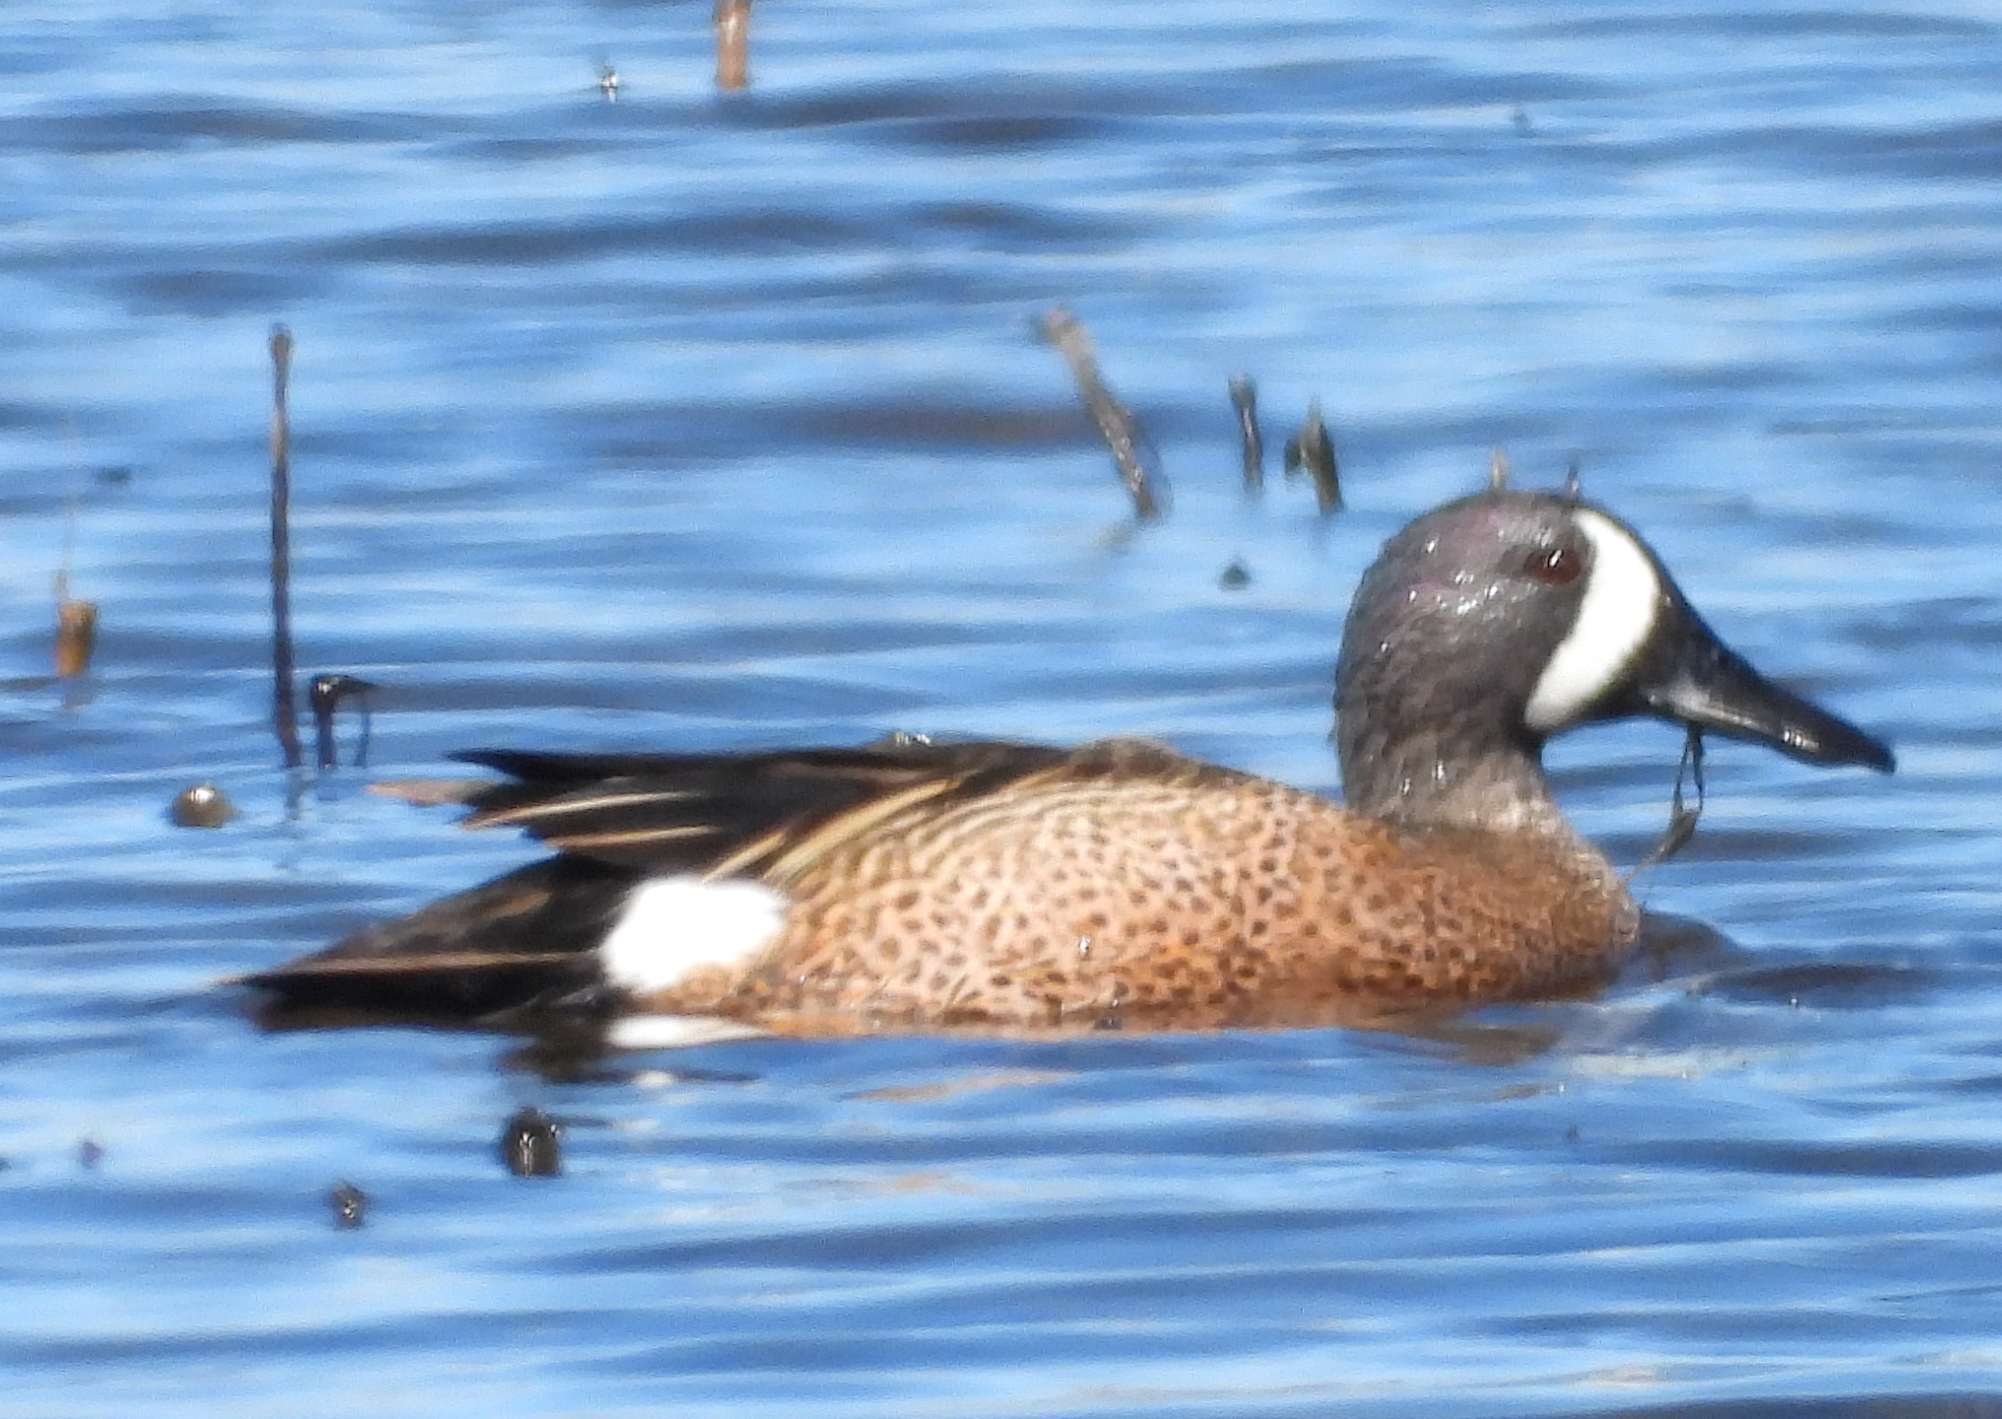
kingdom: Animalia
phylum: Chordata
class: Aves
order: Anseriformes
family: Anatidae
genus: Spatula
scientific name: Spatula discors
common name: Blue-winged teal
